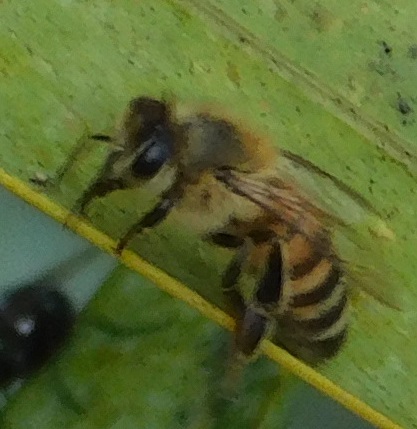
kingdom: Animalia
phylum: Arthropoda
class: Insecta
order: Hymenoptera
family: Apidae
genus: Apis
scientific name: Apis mellifera
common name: Honey bee
